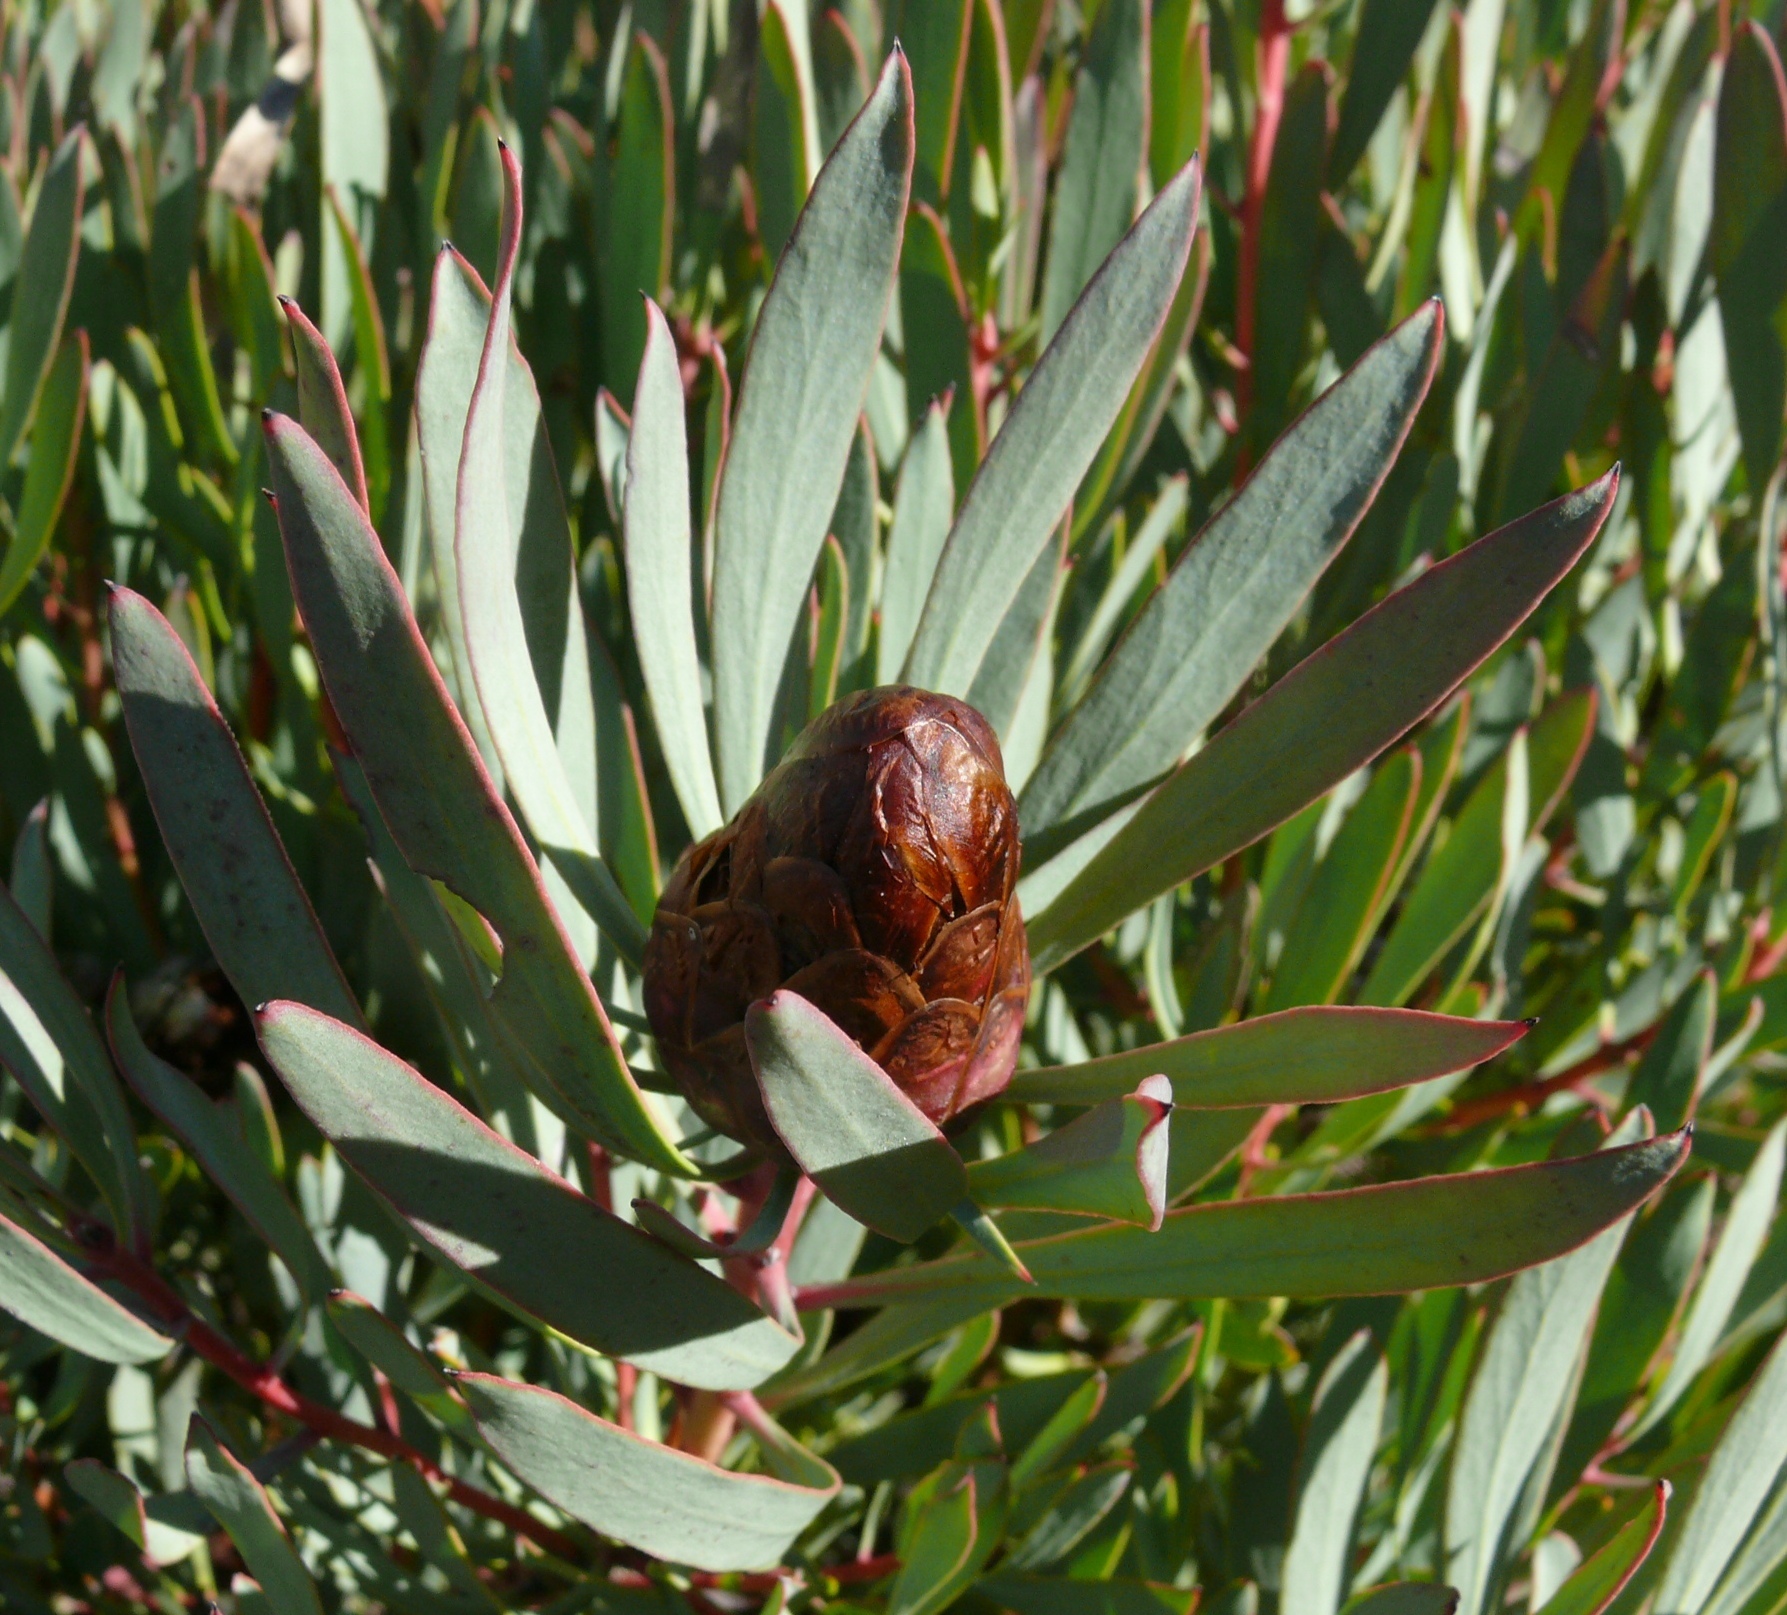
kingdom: Plantae
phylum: Tracheophyta
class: Magnoliopsida
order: Proteales
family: Proteaceae
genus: Protea
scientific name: Protea acuminata
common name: Black-rim sugarbush
